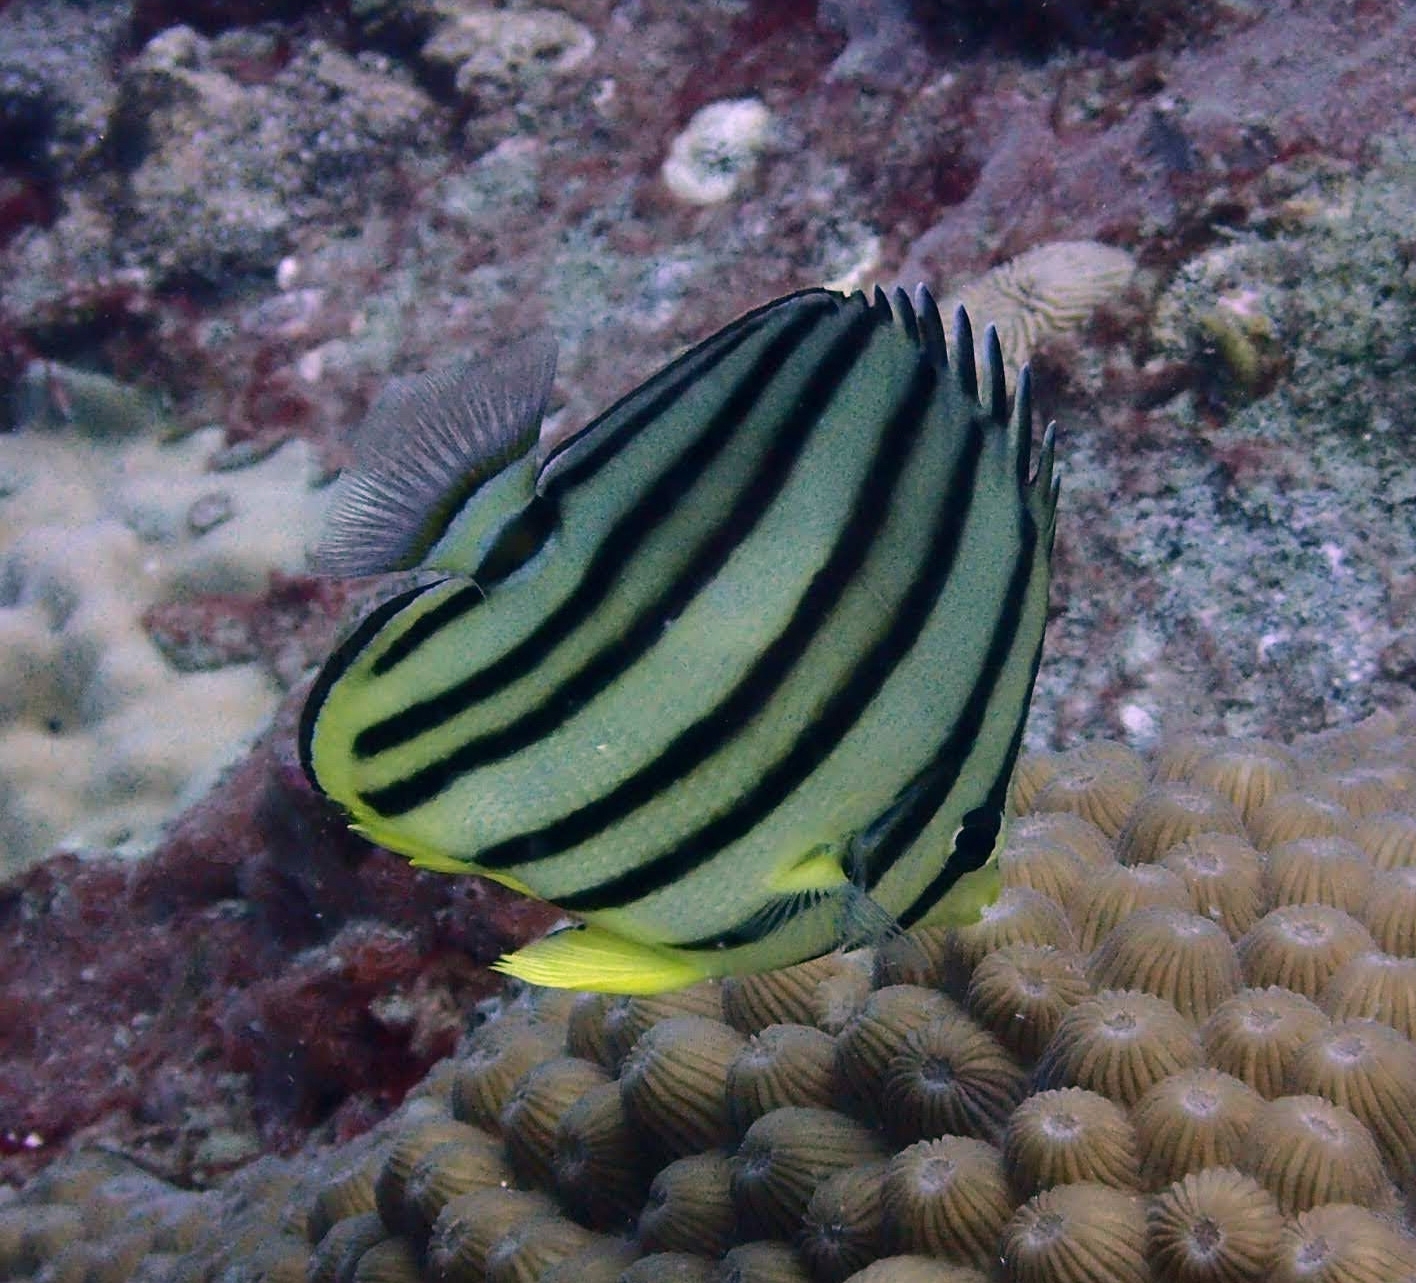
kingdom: Animalia
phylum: Chordata
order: Perciformes
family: Chaetodontidae
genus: Chaetodon
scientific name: Chaetodon octofasciatus
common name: Eightband butterflyfish
